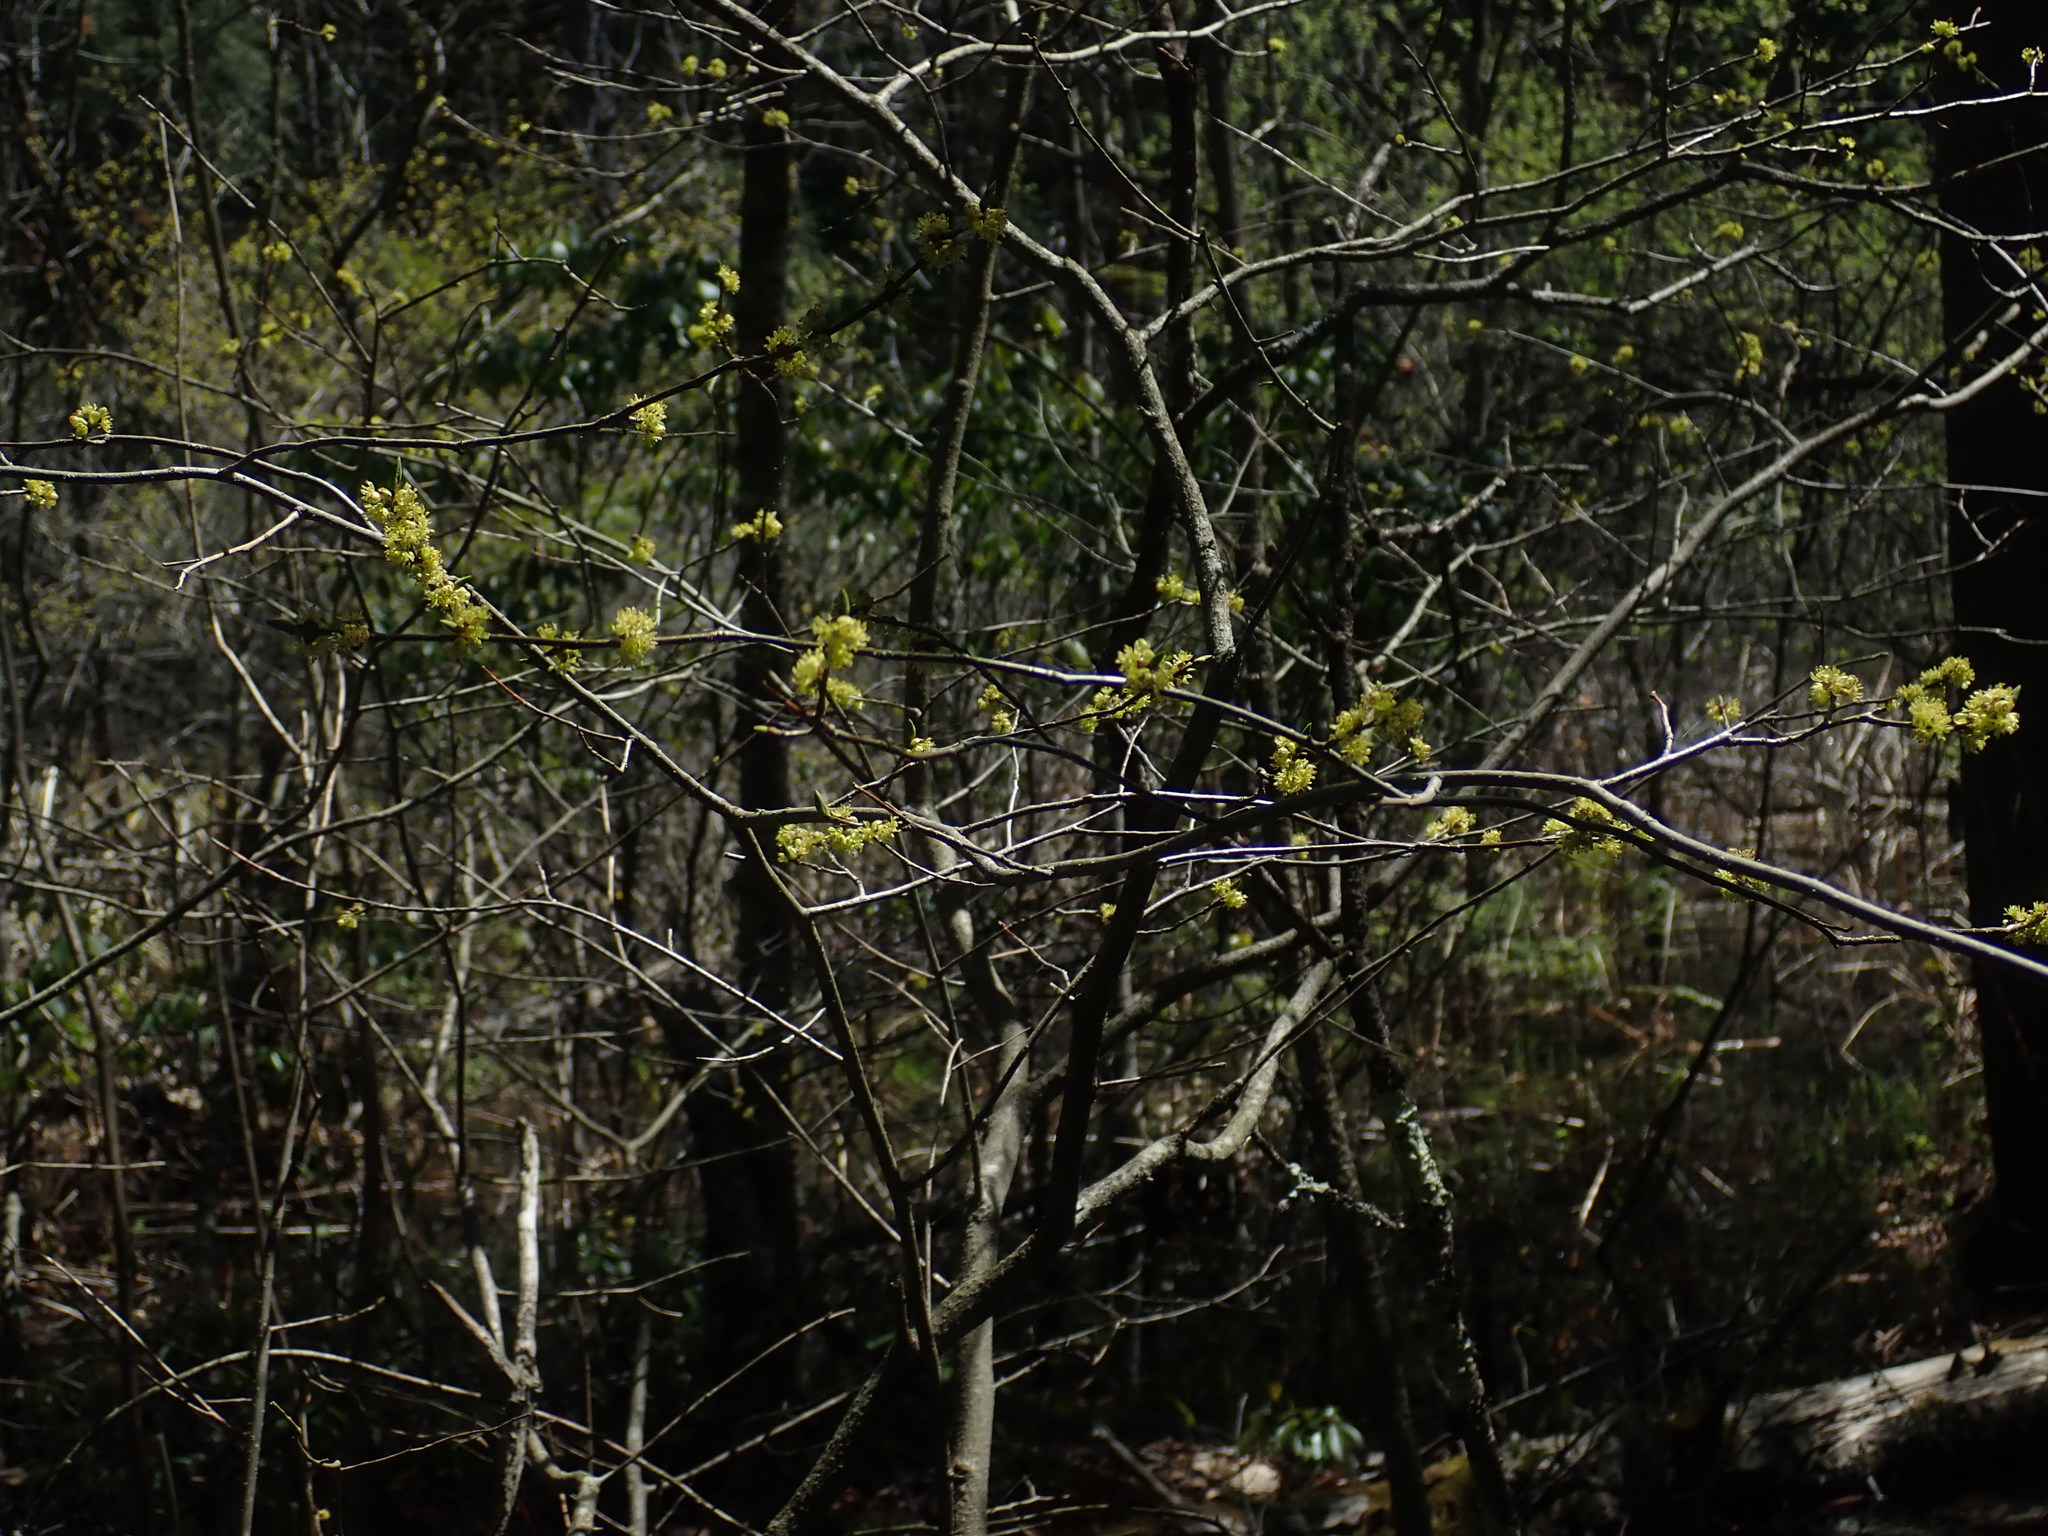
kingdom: Plantae
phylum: Tracheophyta
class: Magnoliopsida
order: Laurales
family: Lauraceae
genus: Lindera
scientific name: Lindera benzoin
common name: Spicebush
